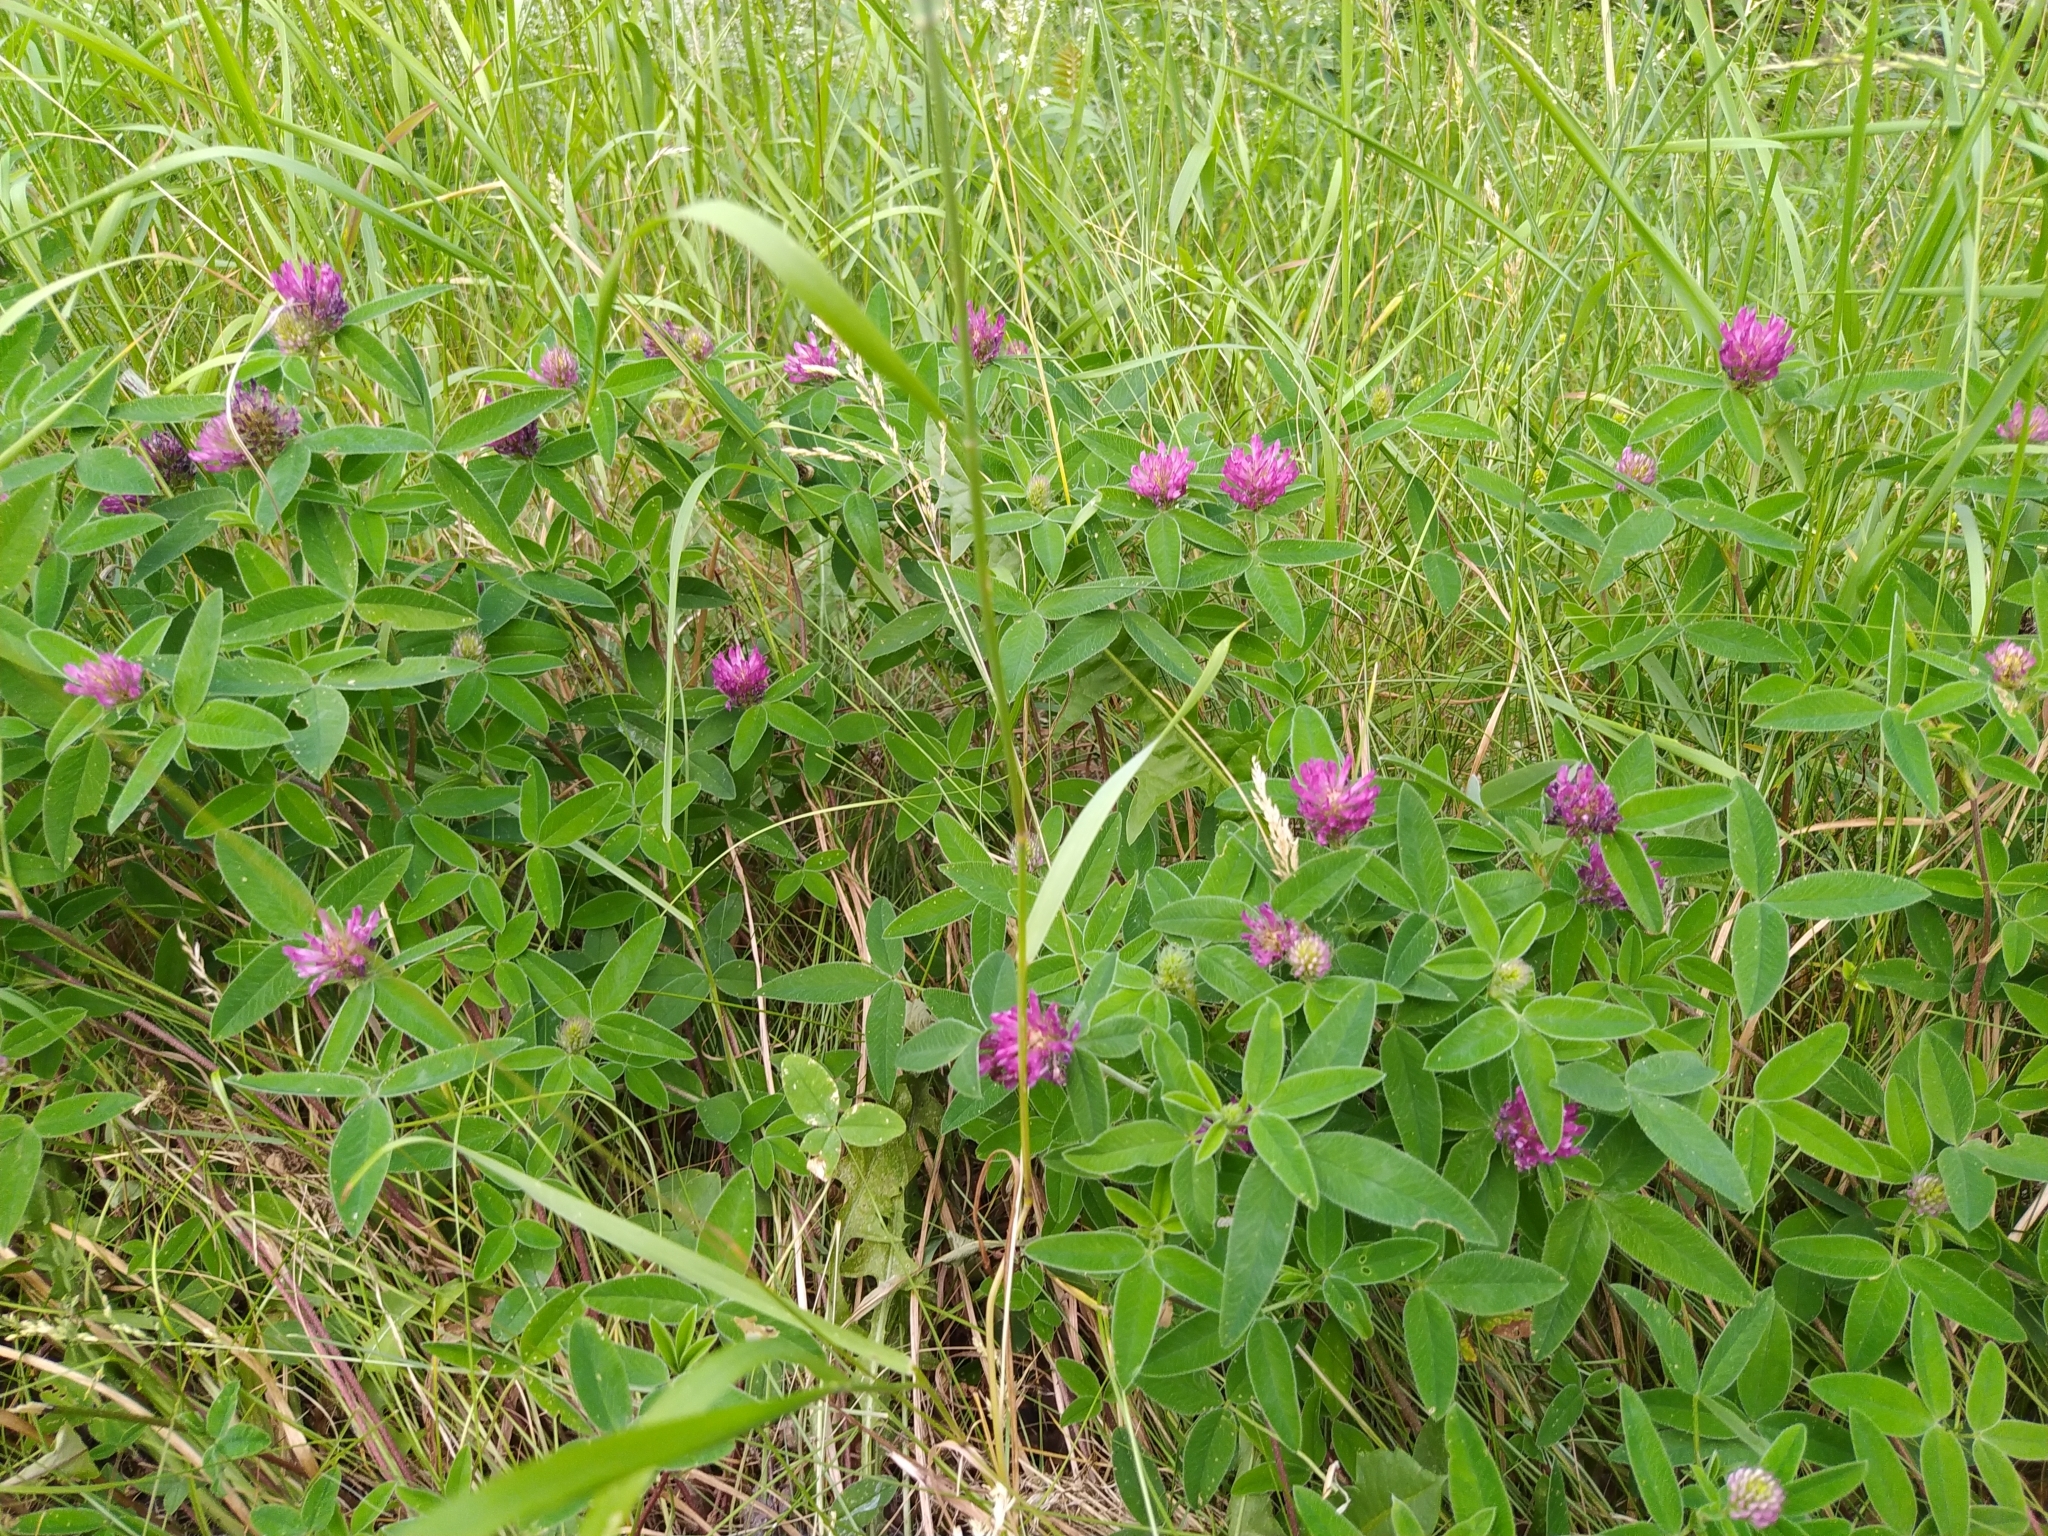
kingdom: Plantae
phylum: Tracheophyta
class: Magnoliopsida
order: Fabales
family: Fabaceae
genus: Trifolium
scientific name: Trifolium medium
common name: Zigzag clover
